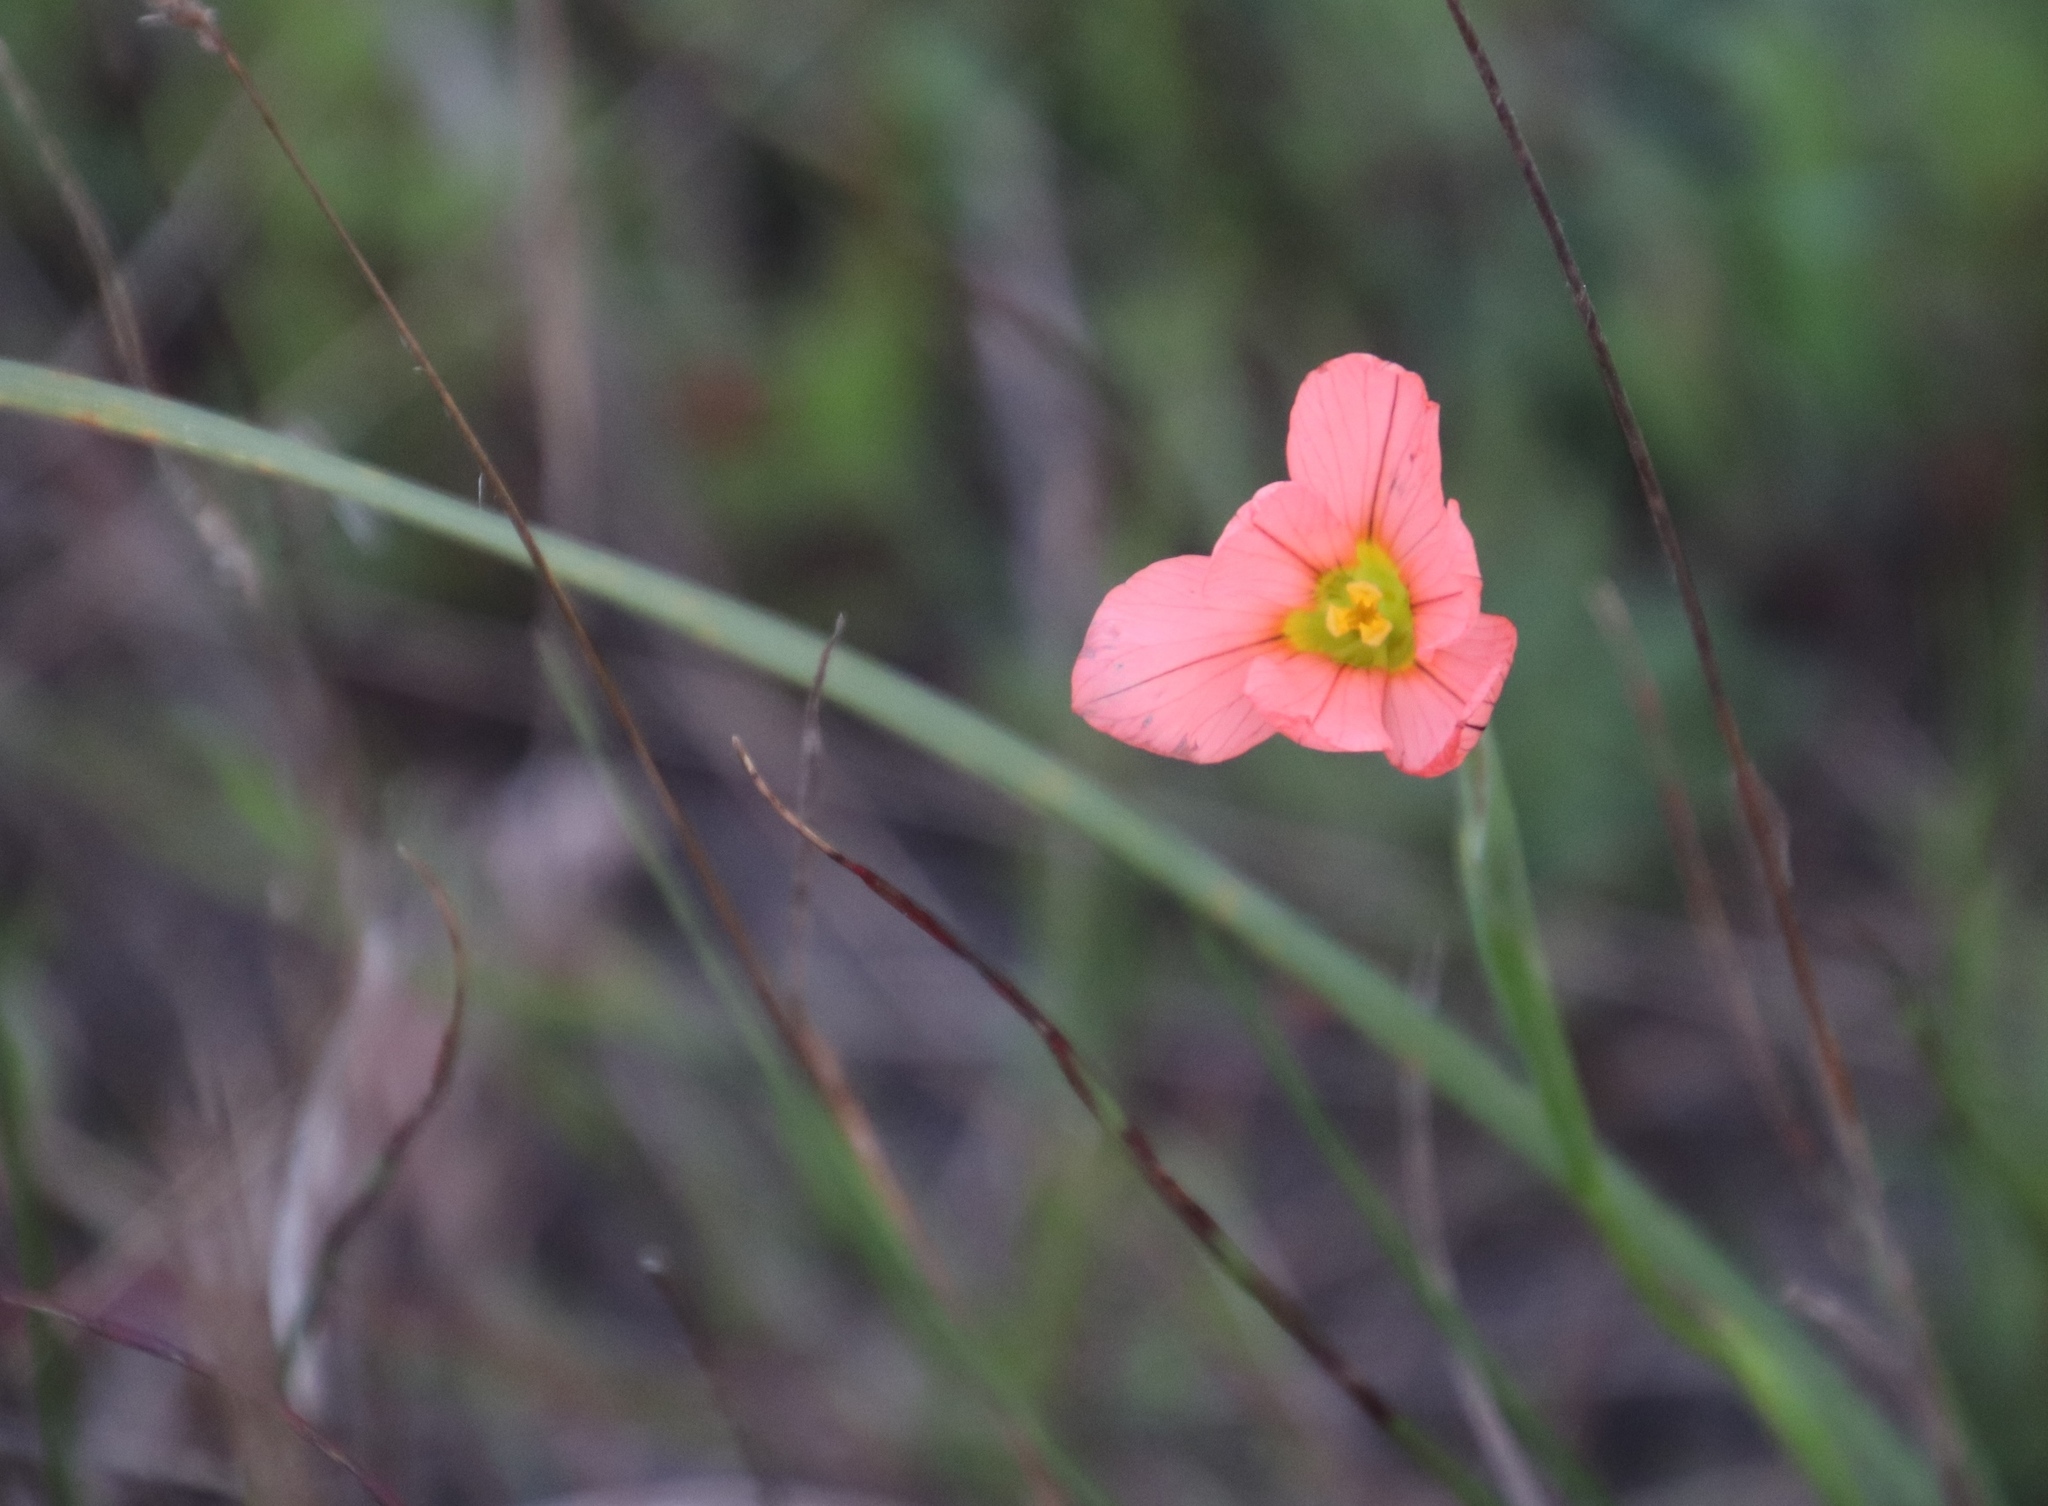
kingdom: Plantae
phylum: Tracheophyta
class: Liliopsida
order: Asparagales
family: Iridaceae
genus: Moraea
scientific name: Moraea flaccida
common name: One-leaf cape-tulip
